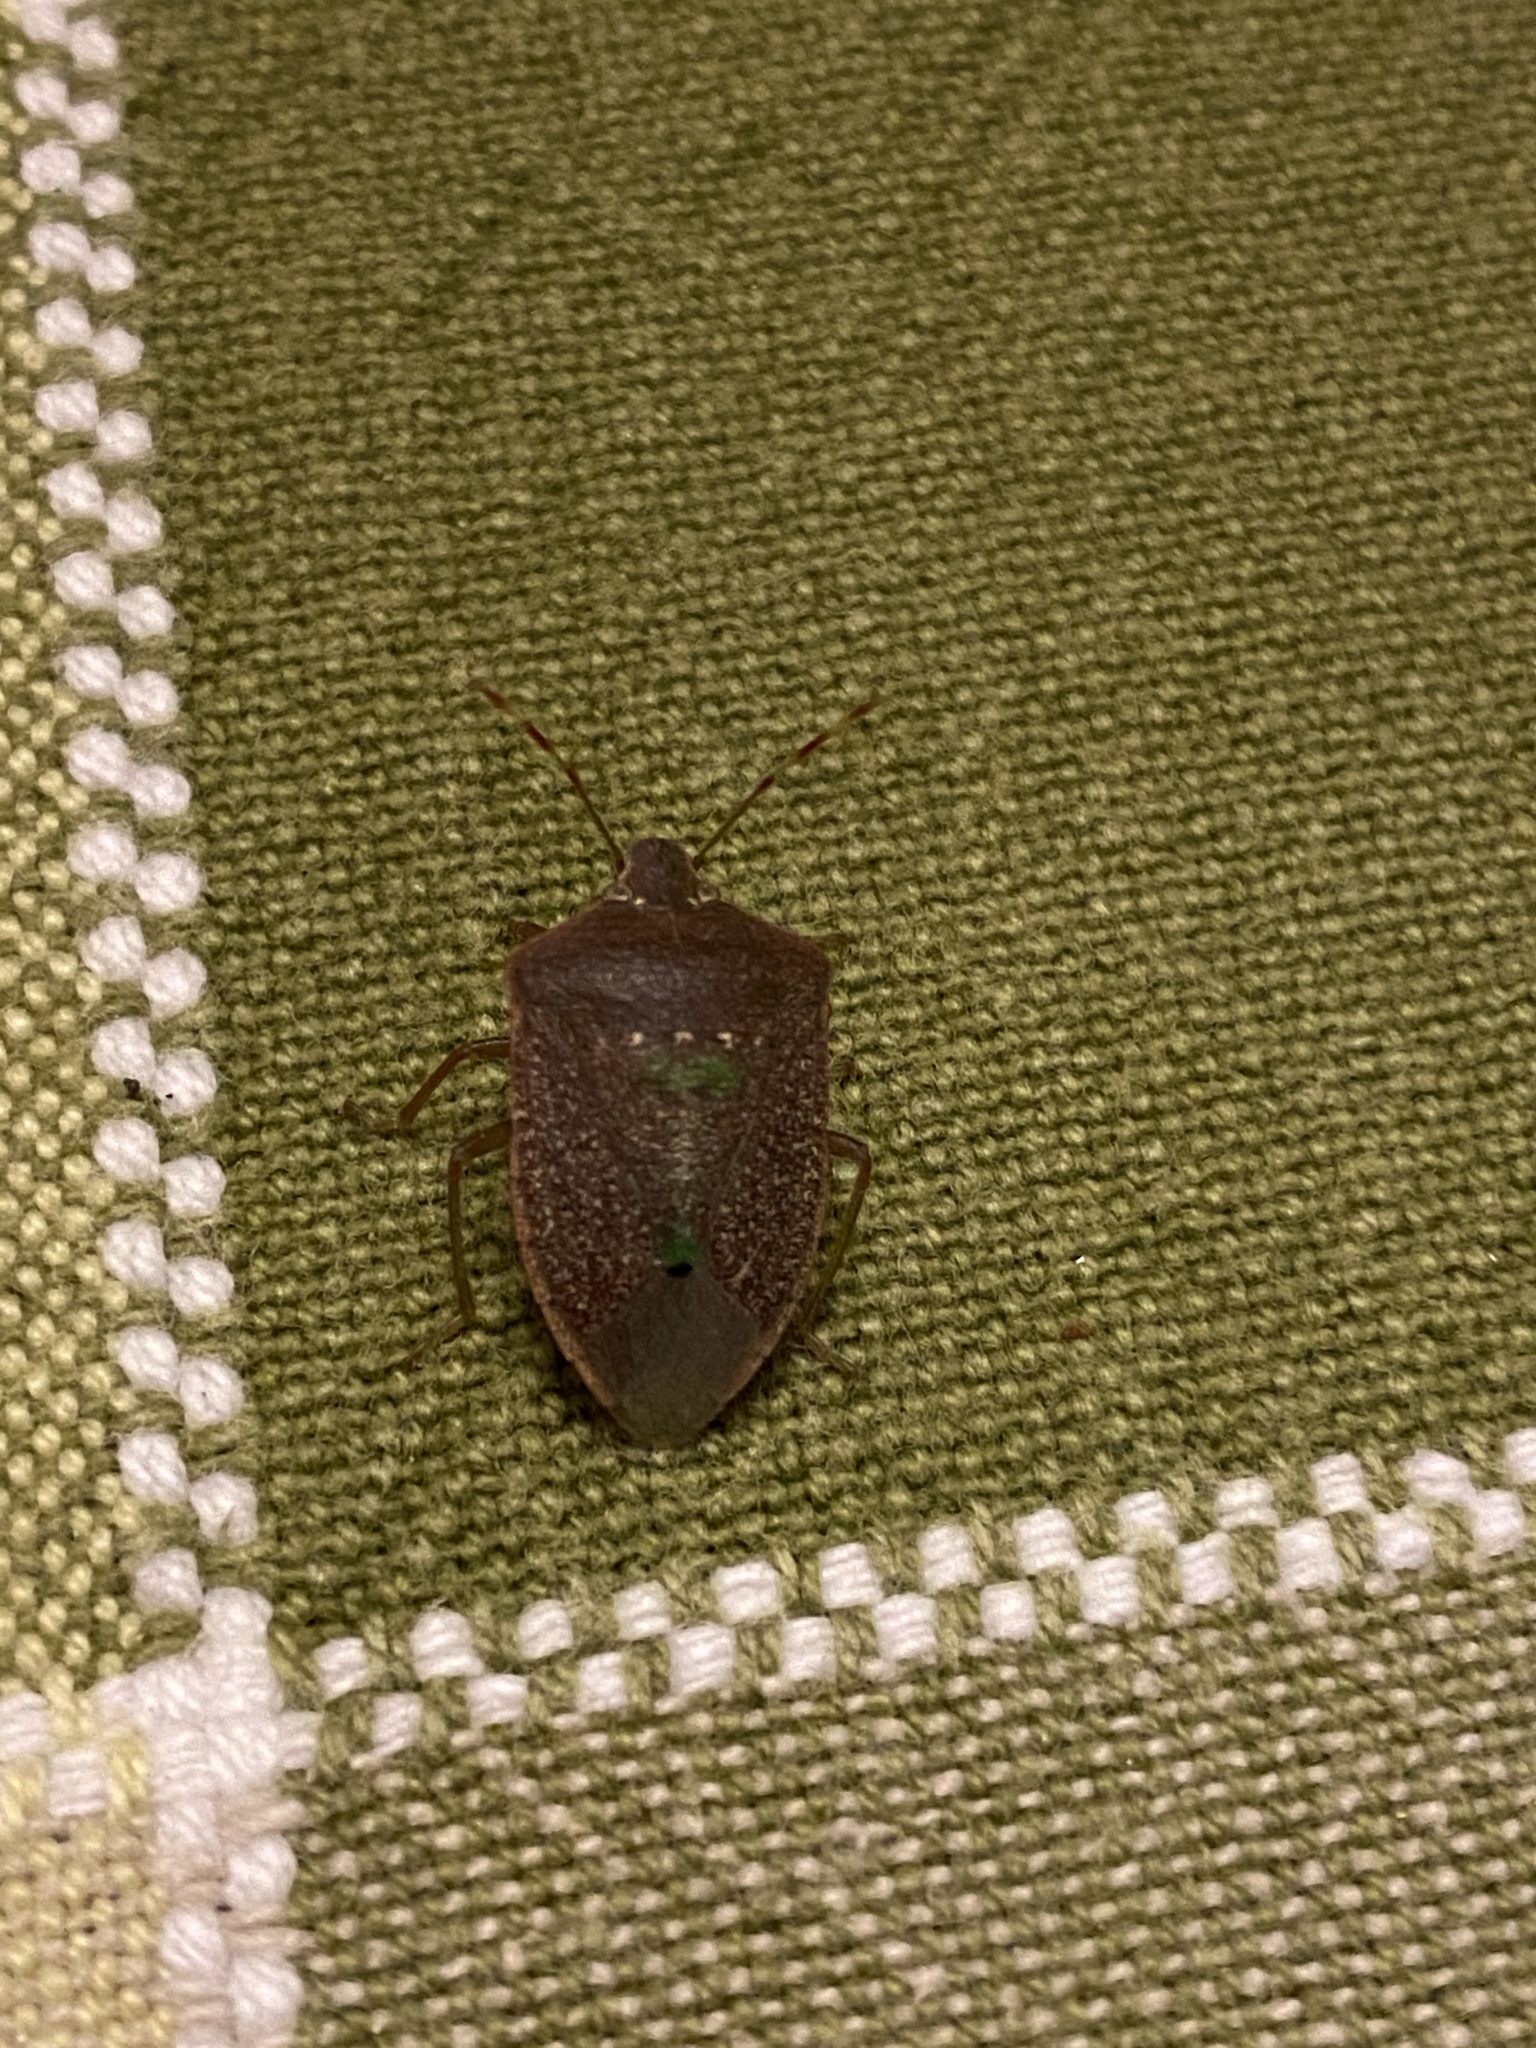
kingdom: Animalia
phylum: Arthropoda
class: Insecta
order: Hemiptera
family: Pentatomidae
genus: Nezara
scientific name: Nezara viridula
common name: Southern green stink bug
